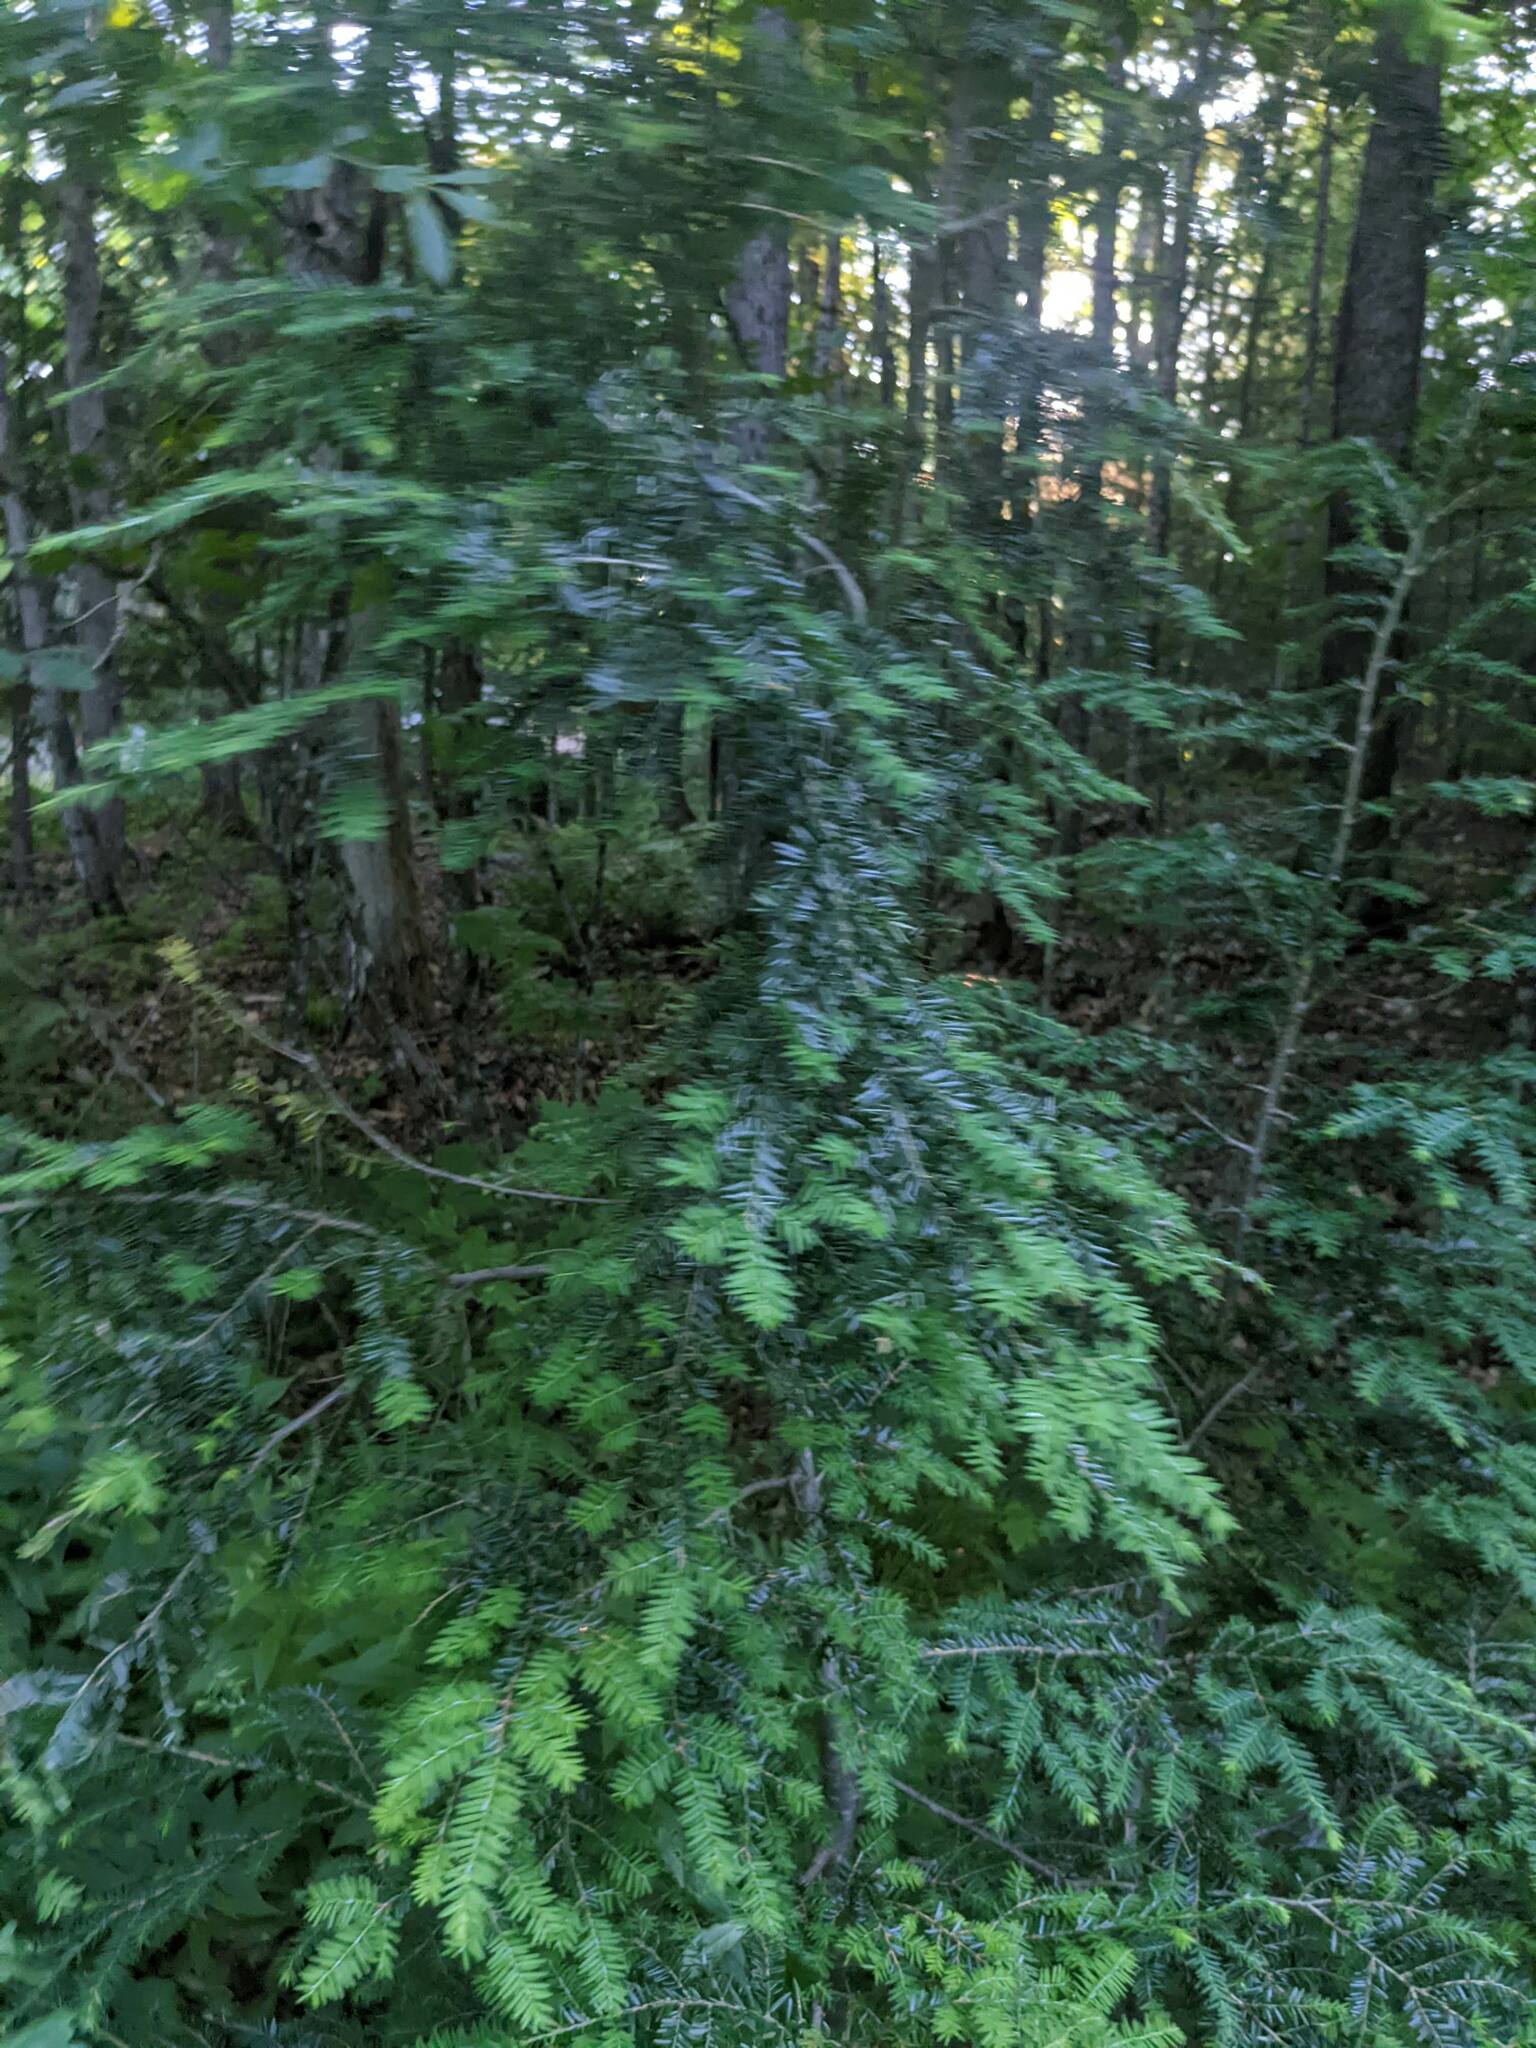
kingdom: Plantae
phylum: Tracheophyta
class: Pinopsida
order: Pinales
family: Pinaceae
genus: Tsuga
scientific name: Tsuga canadensis
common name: Eastern hemlock
